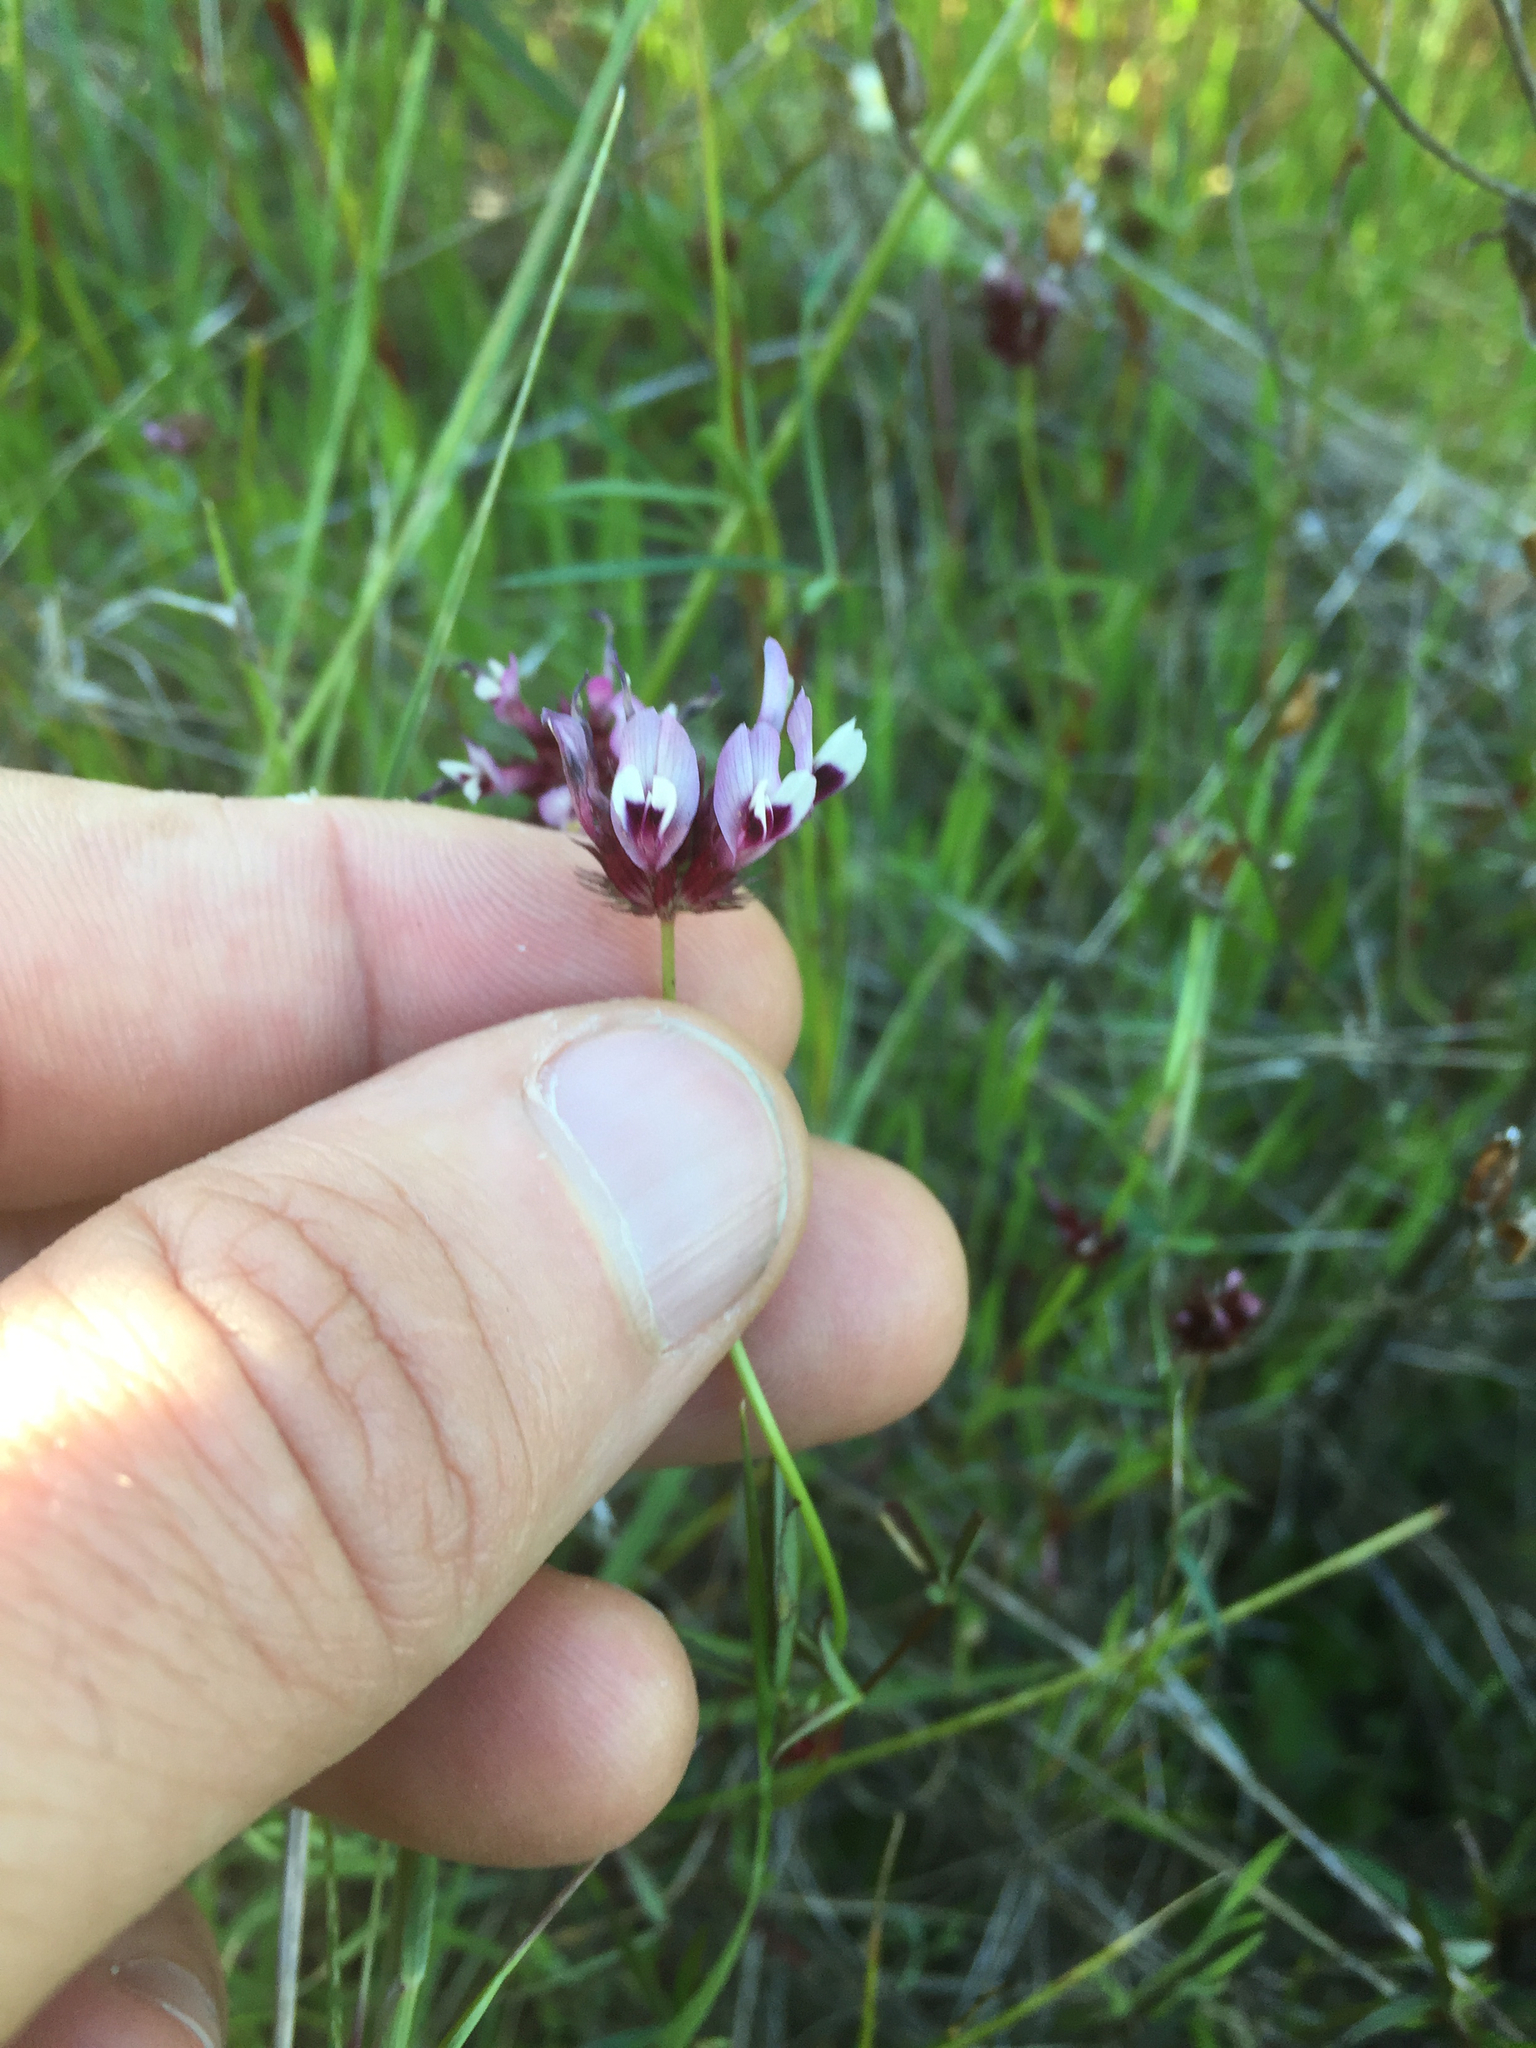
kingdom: Plantae
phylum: Tracheophyta
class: Magnoliopsida
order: Fabales
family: Fabaceae
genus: Trifolium
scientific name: Trifolium willdenovii
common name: Tomcat clover
